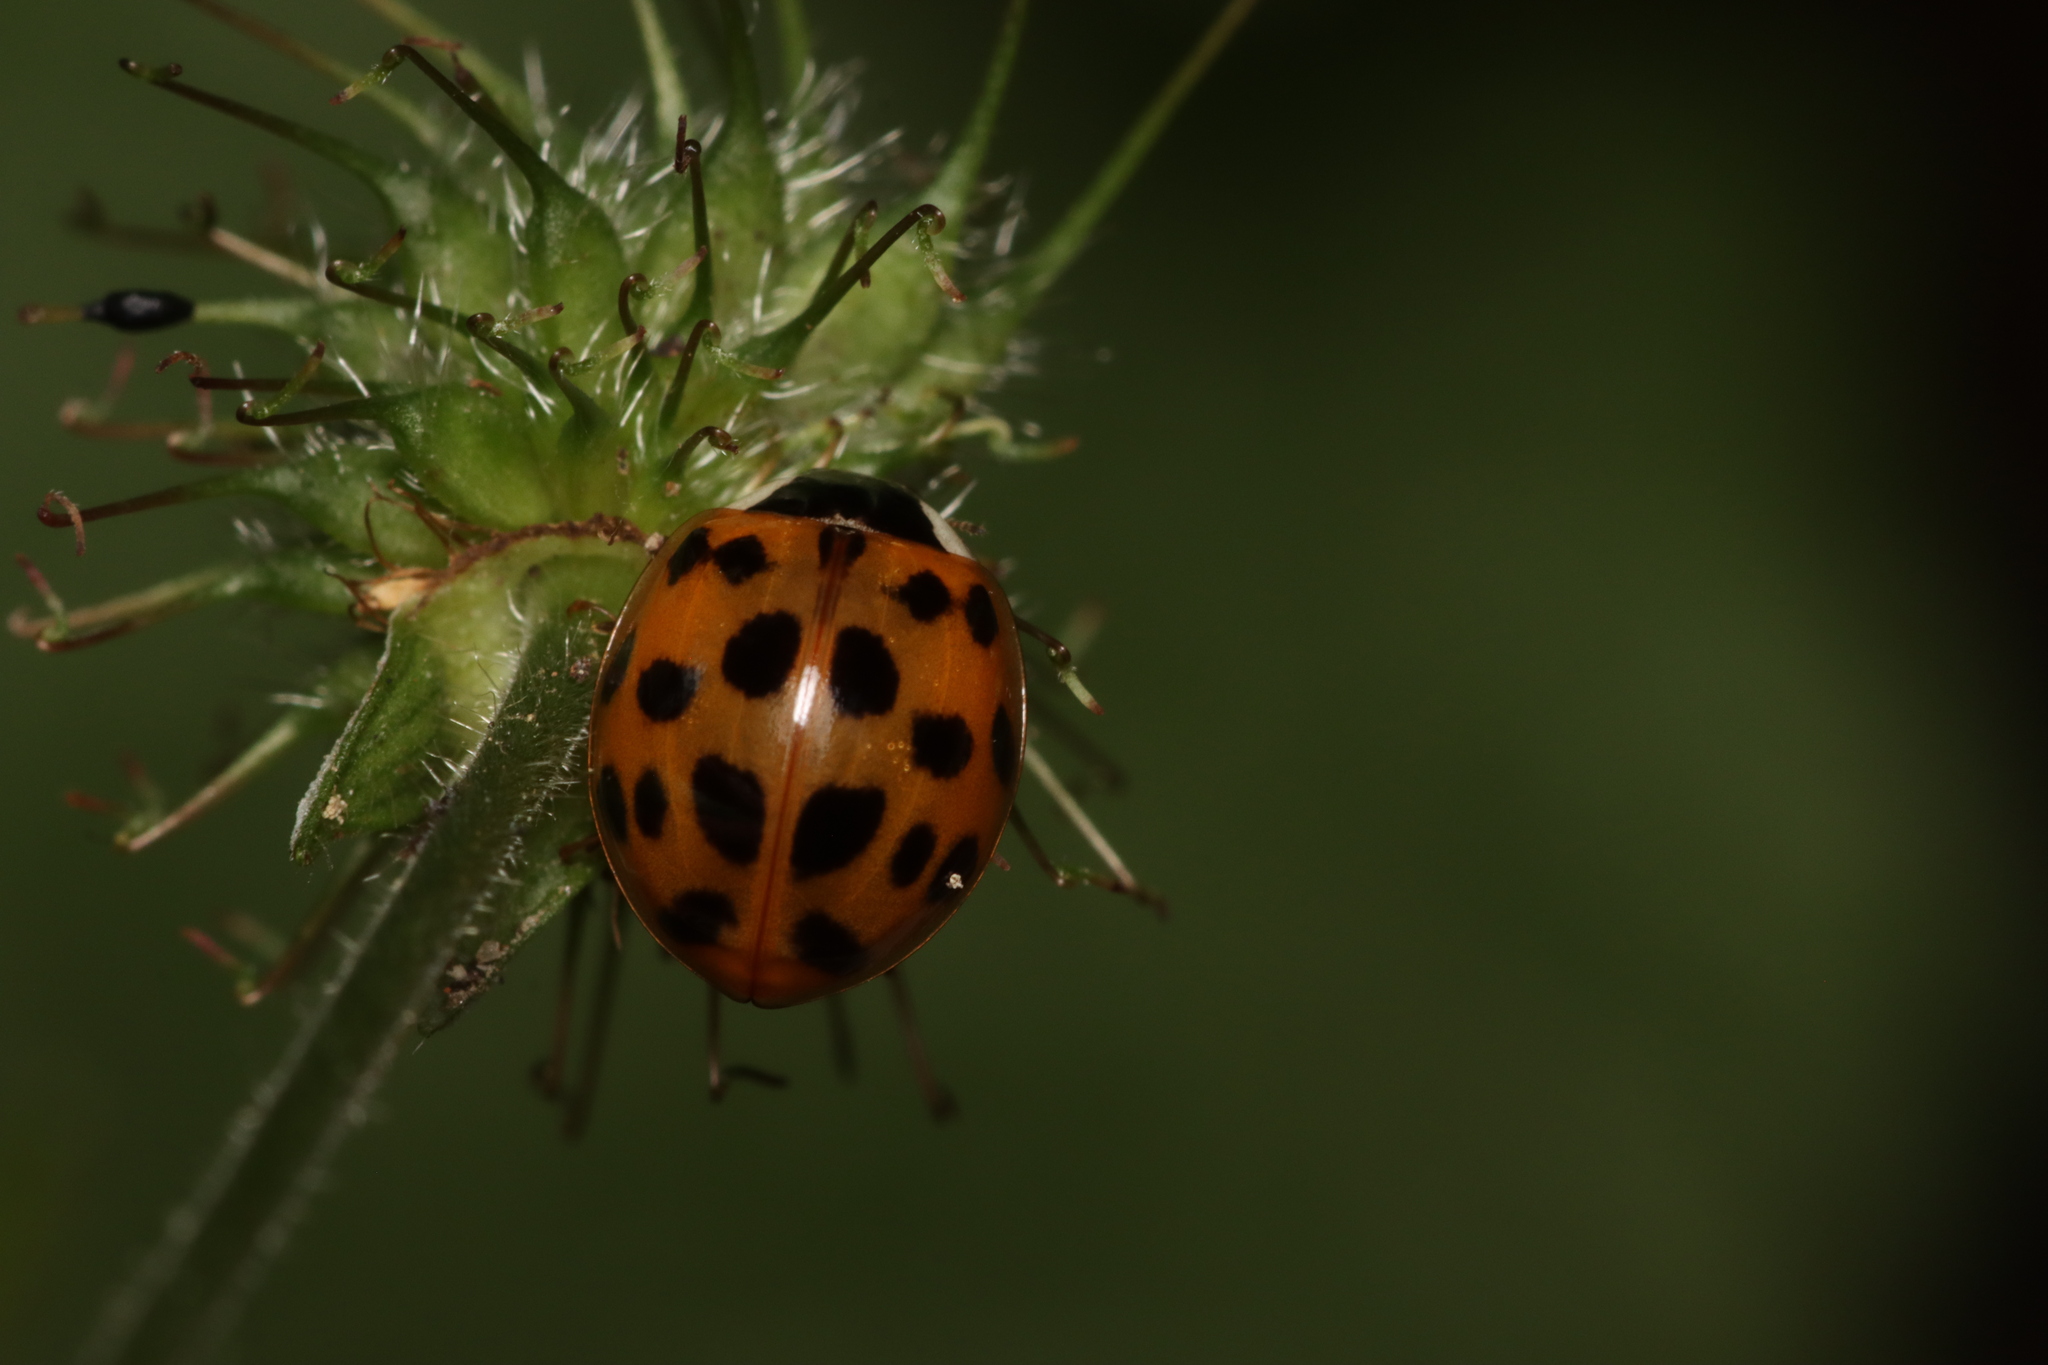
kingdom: Animalia
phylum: Arthropoda
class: Insecta
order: Coleoptera
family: Coccinellidae
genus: Harmonia
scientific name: Harmonia axyridis
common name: Harlequin ladybird
